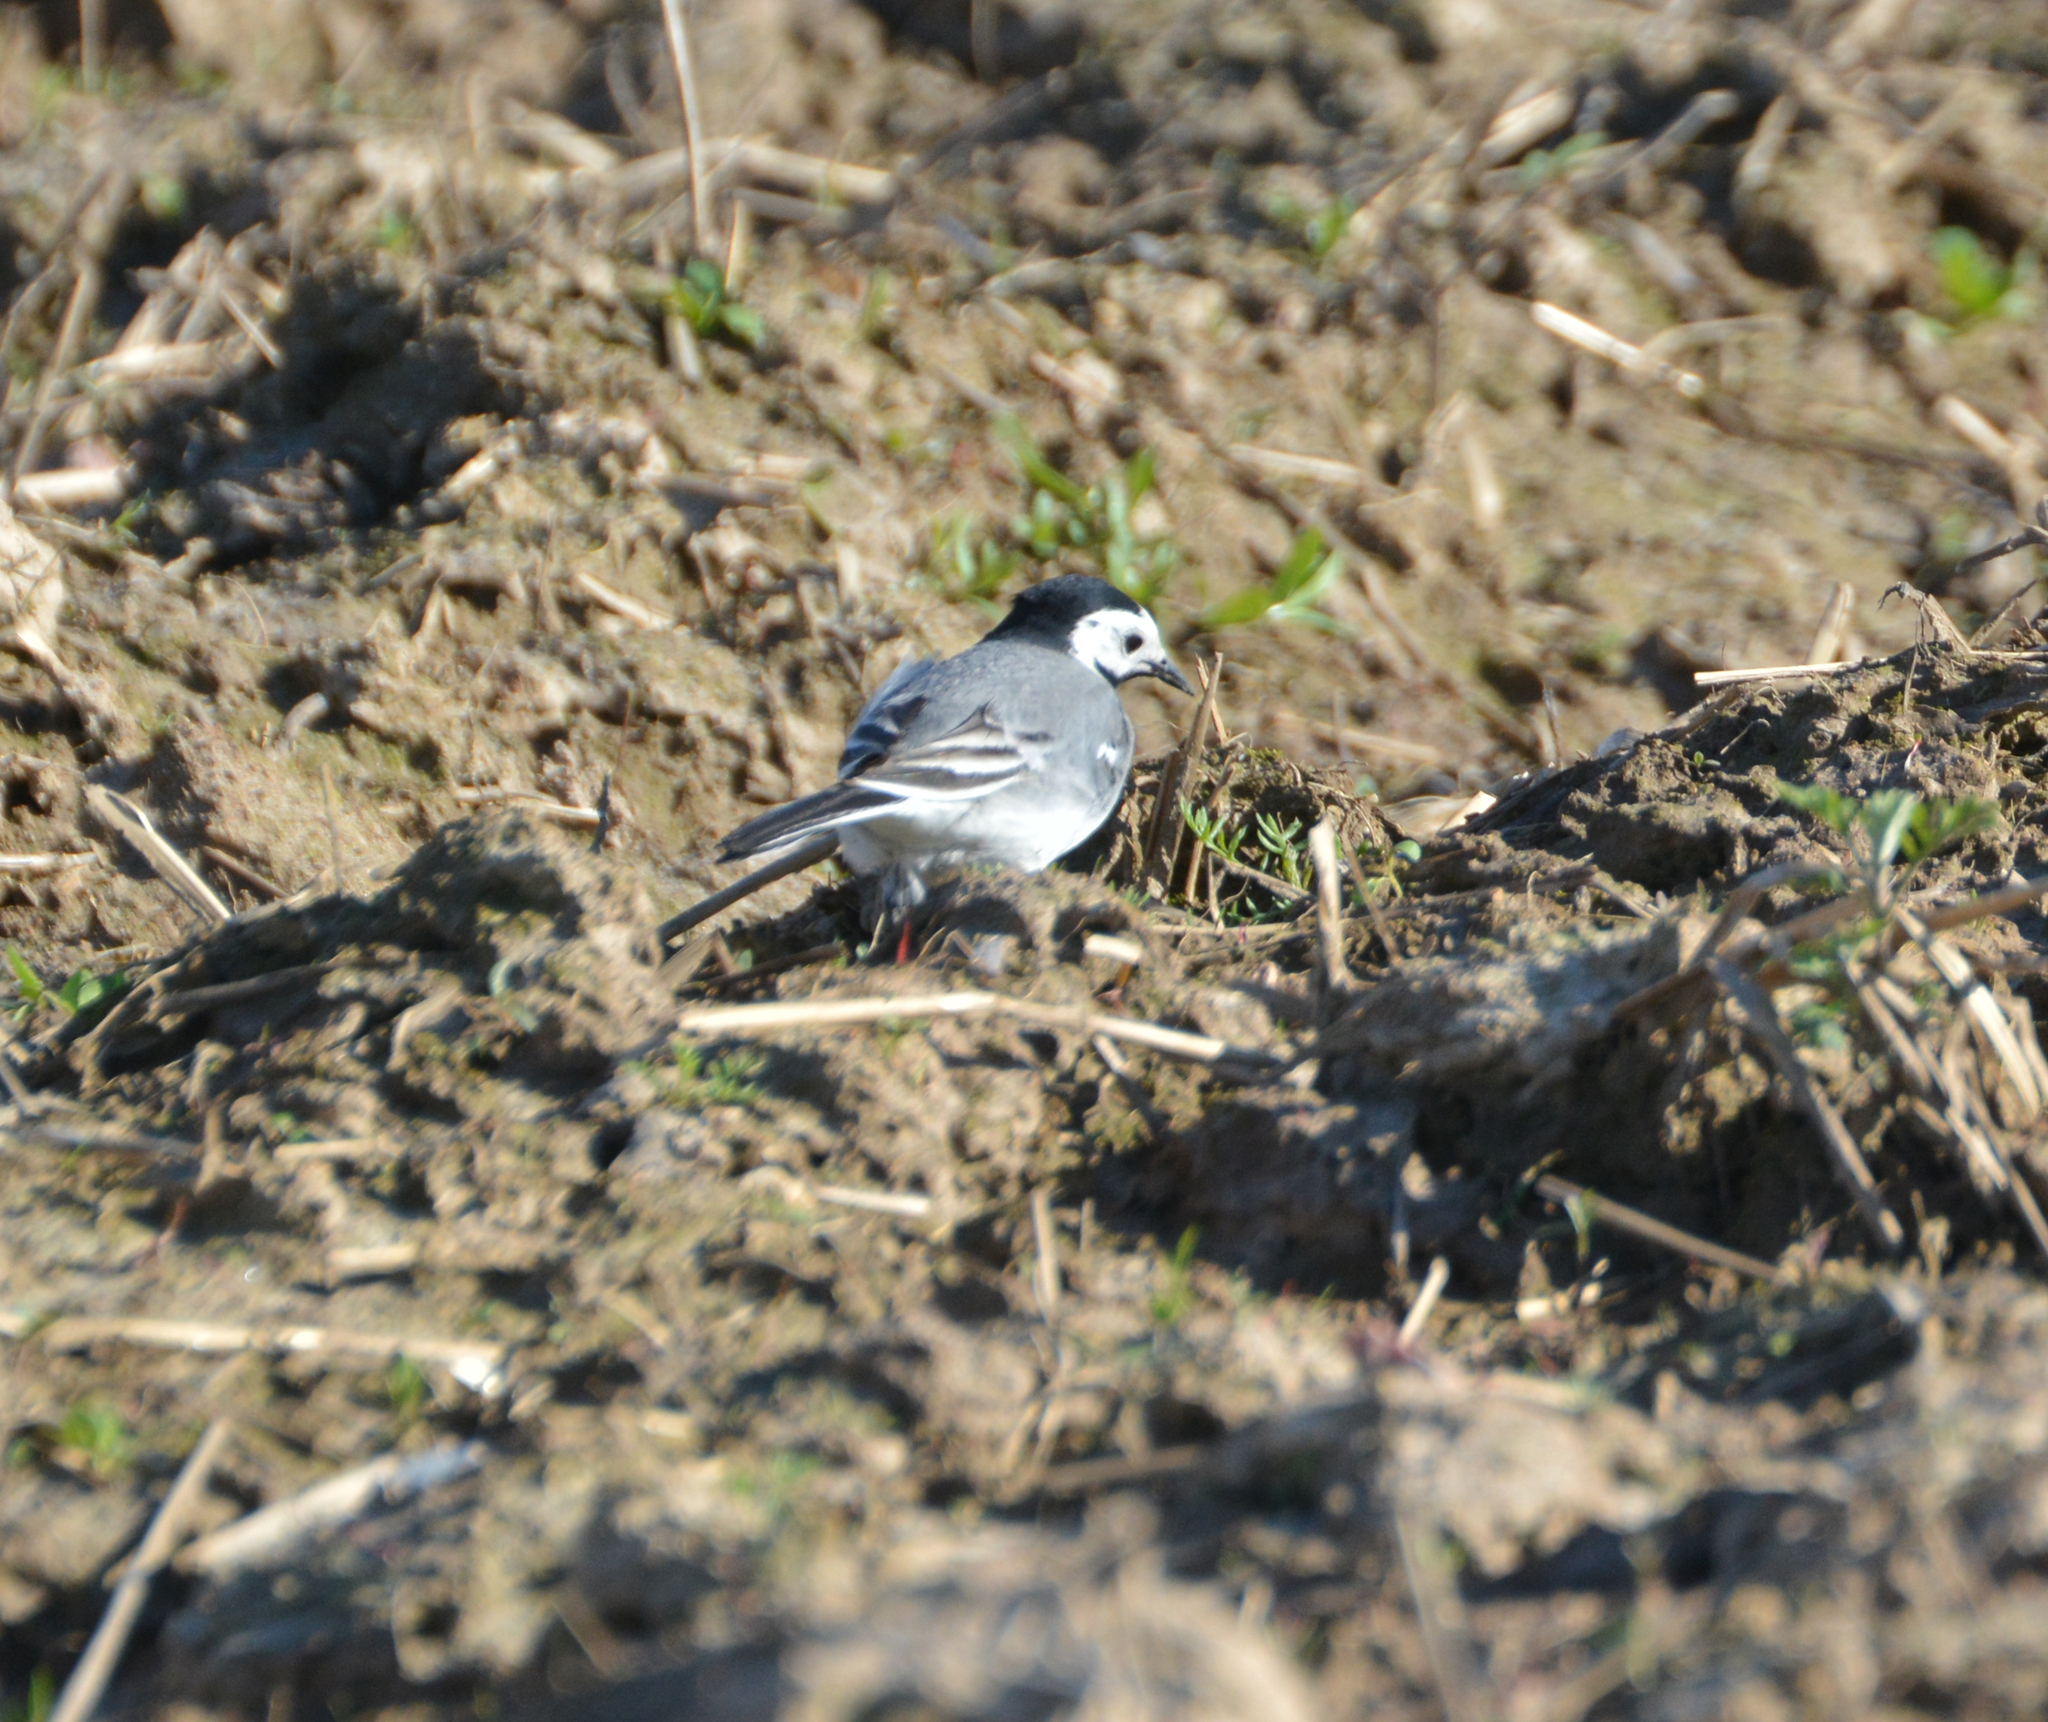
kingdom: Animalia
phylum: Chordata
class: Aves
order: Passeriformes
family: Motacillidae
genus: Motacilla
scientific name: Motacilla alba
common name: White wagtail
